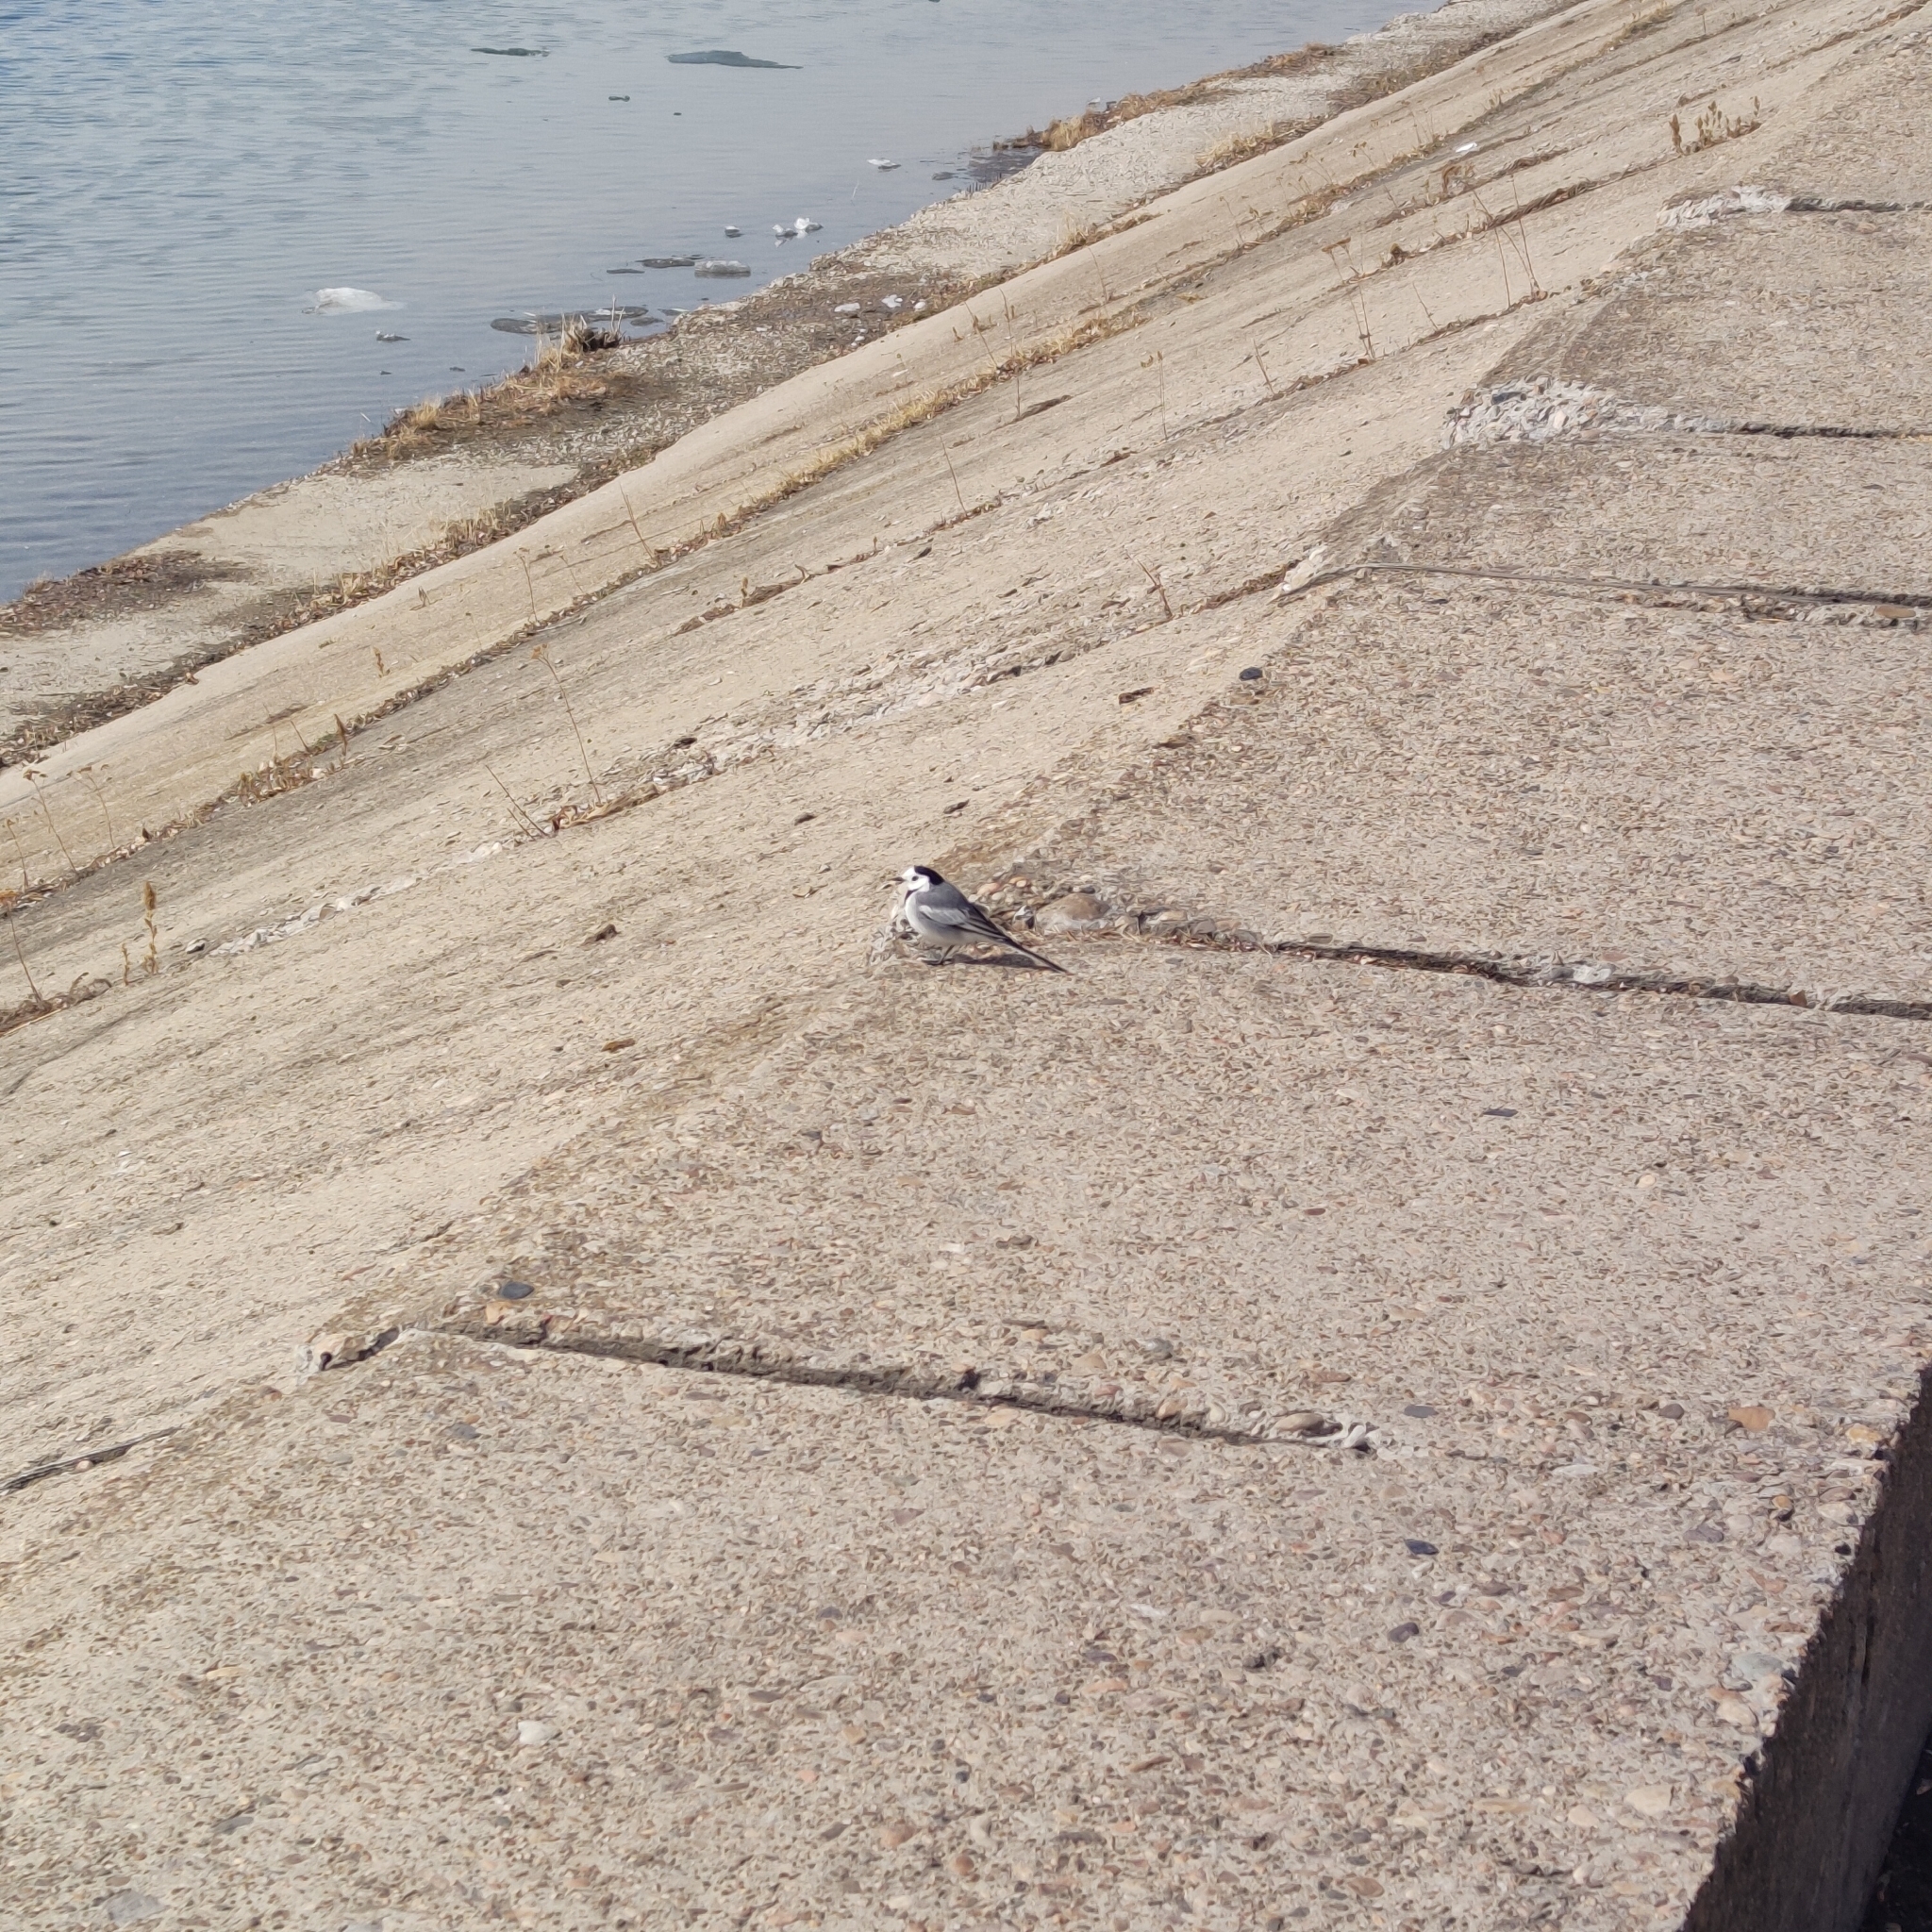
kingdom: Animalia
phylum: Chordata
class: Aves
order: Passeriformes
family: Motacillidae
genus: Motacilla
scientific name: Motacilla alba
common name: White wagtail
